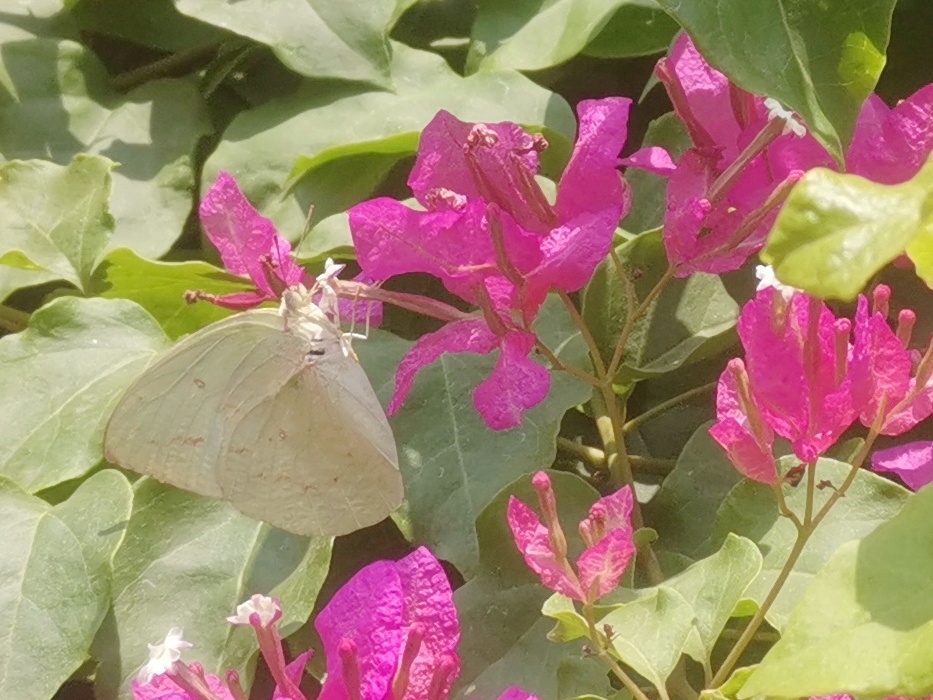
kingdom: Animalia
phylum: Arthropoda
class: Insecta
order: Lepidoptera
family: Pieridae
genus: Catopsilia
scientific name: Catopsilia pomona
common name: Common emigrant
